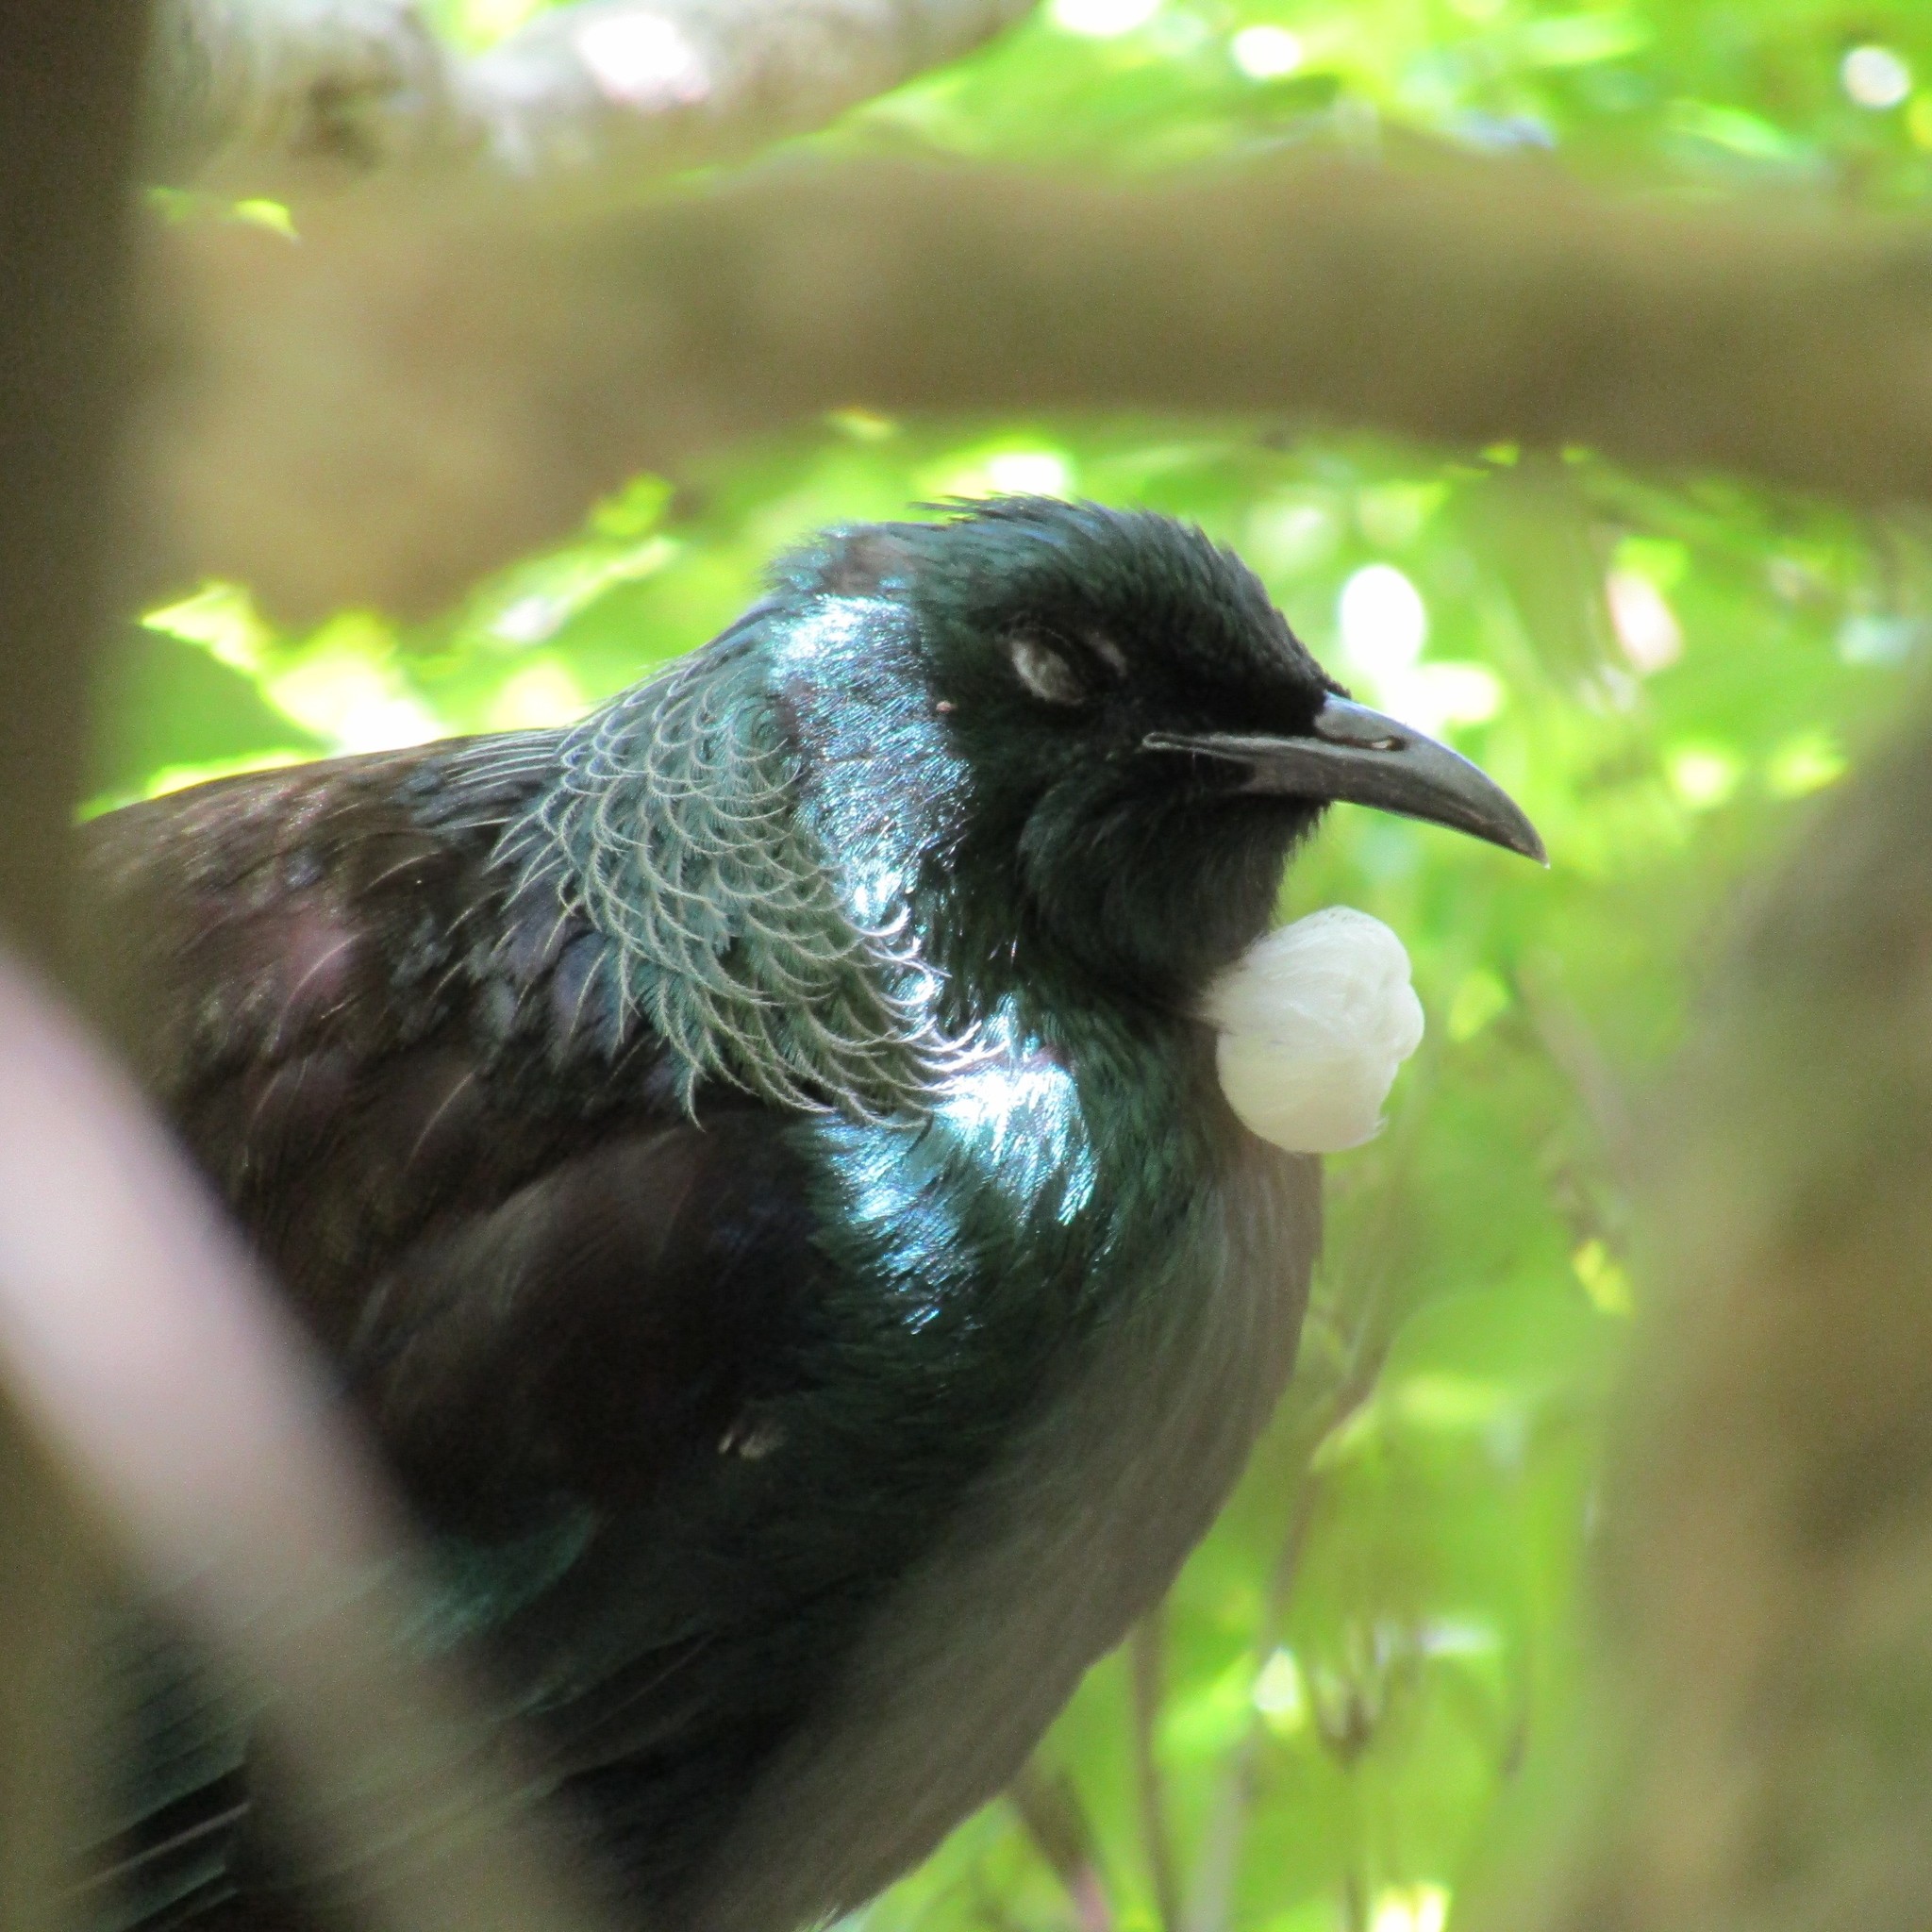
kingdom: Animalia
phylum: Chordata
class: Aves
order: Passeriformes
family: Meliphagidae
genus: Prosthemadera
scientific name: Prosthemadera novaeseelandiae
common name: Tui
